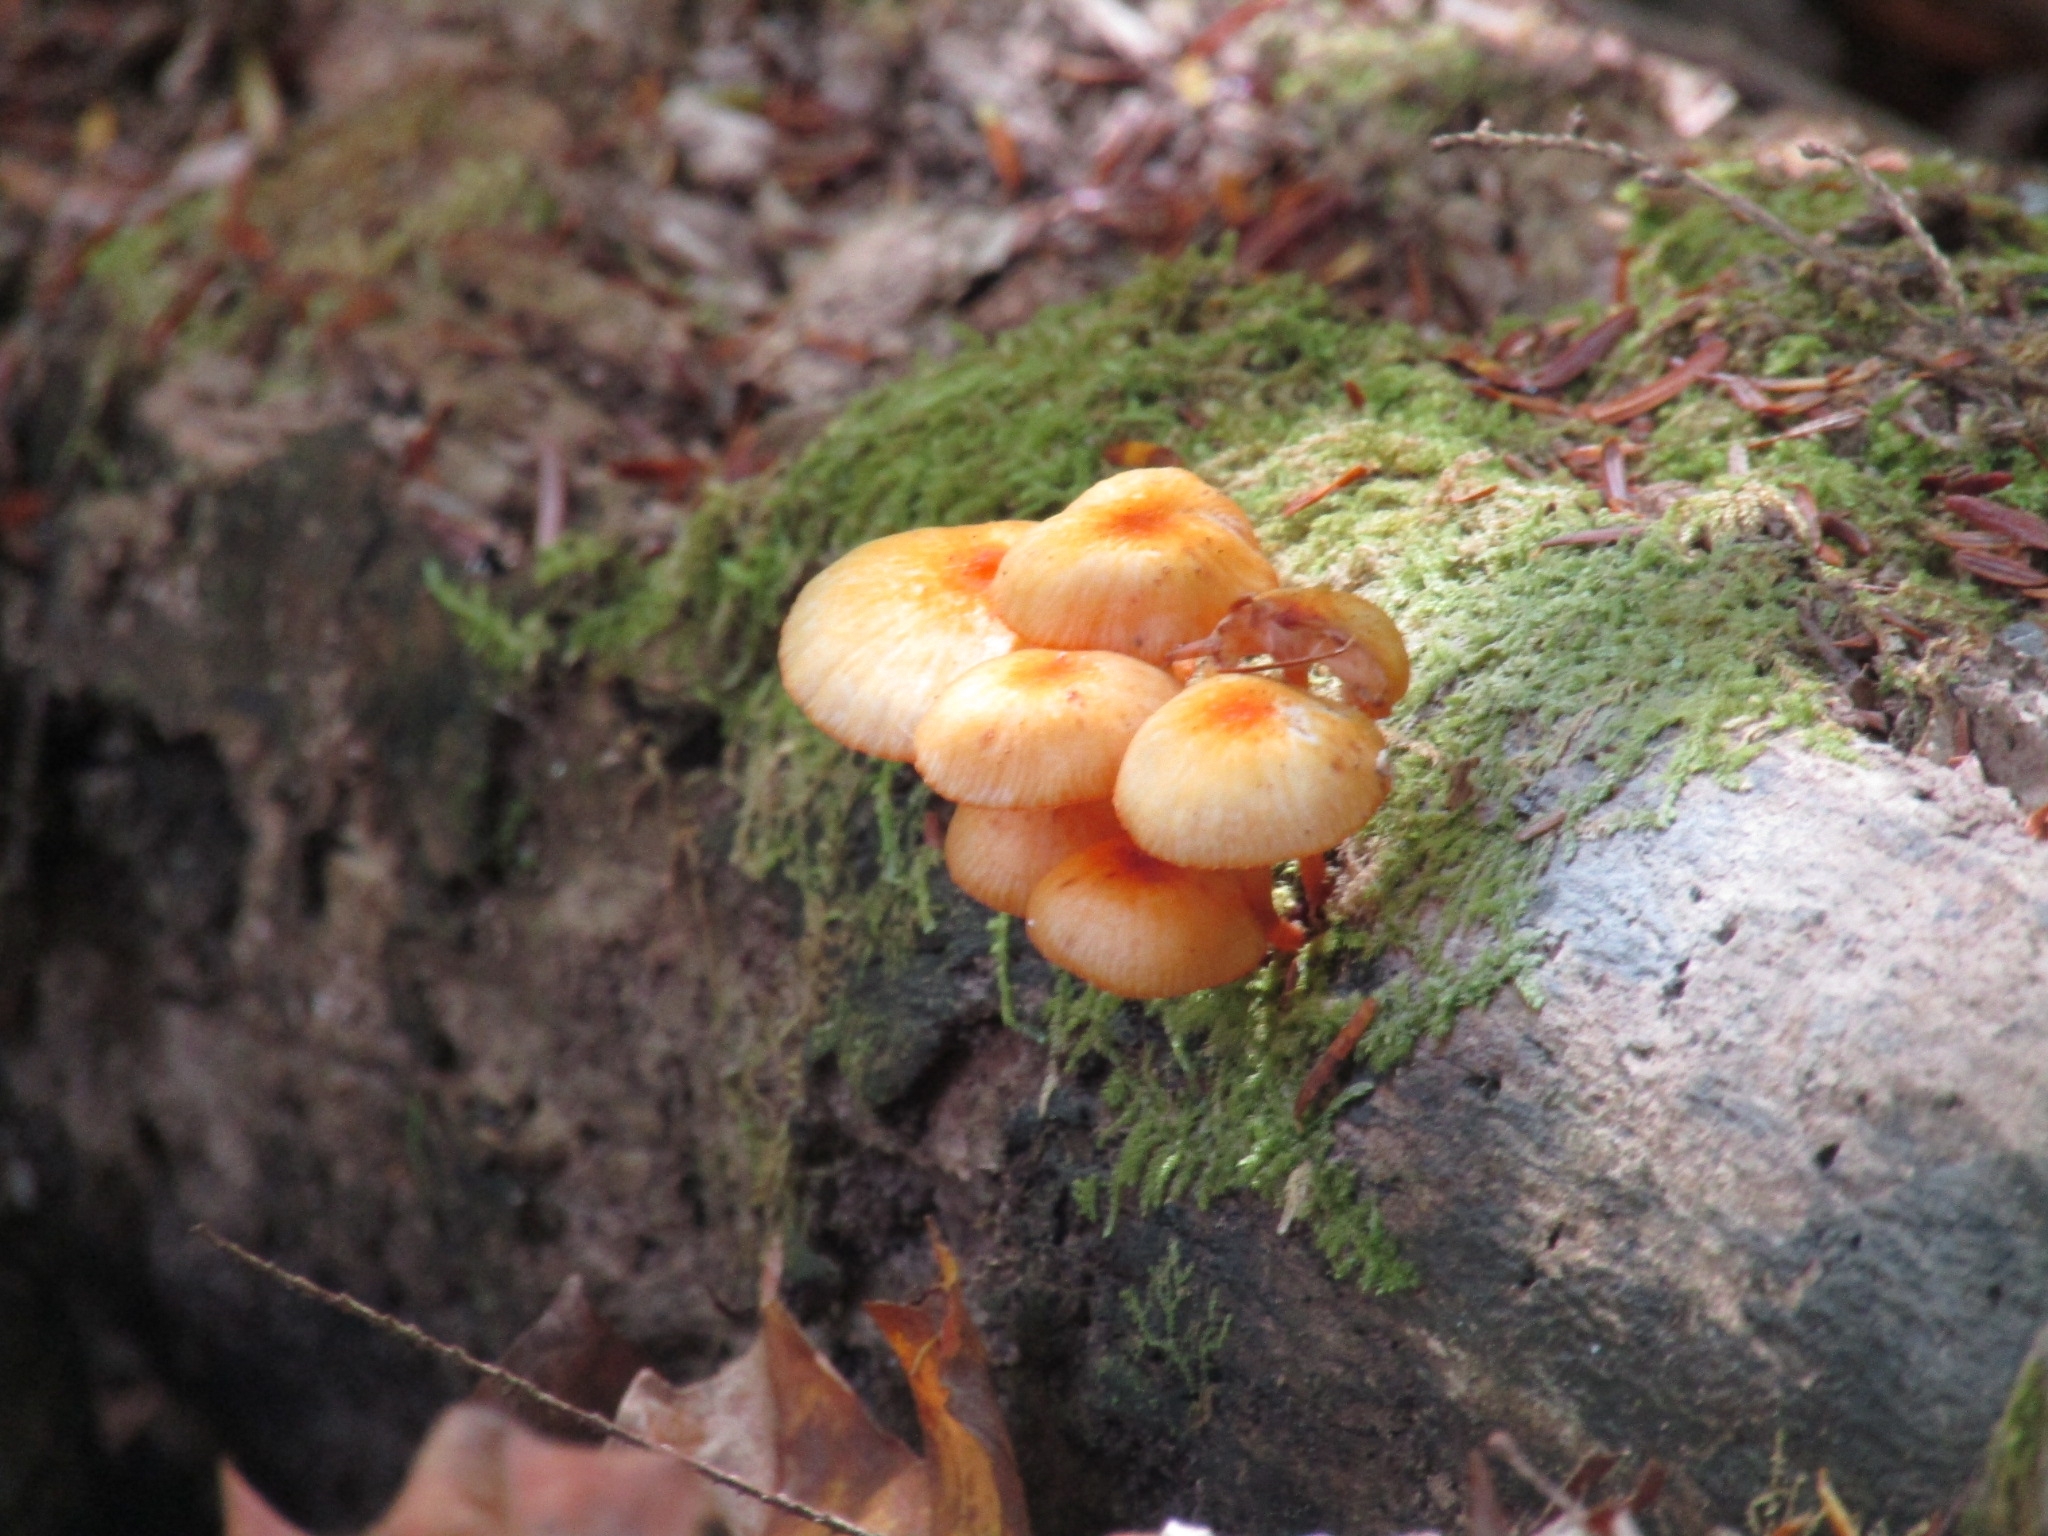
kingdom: Fungi
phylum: Basidiomycota
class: Agaricomycetes
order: Agaricales
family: Mycenaceae
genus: Mycena
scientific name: Mycena leaiana
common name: Orange mycena
